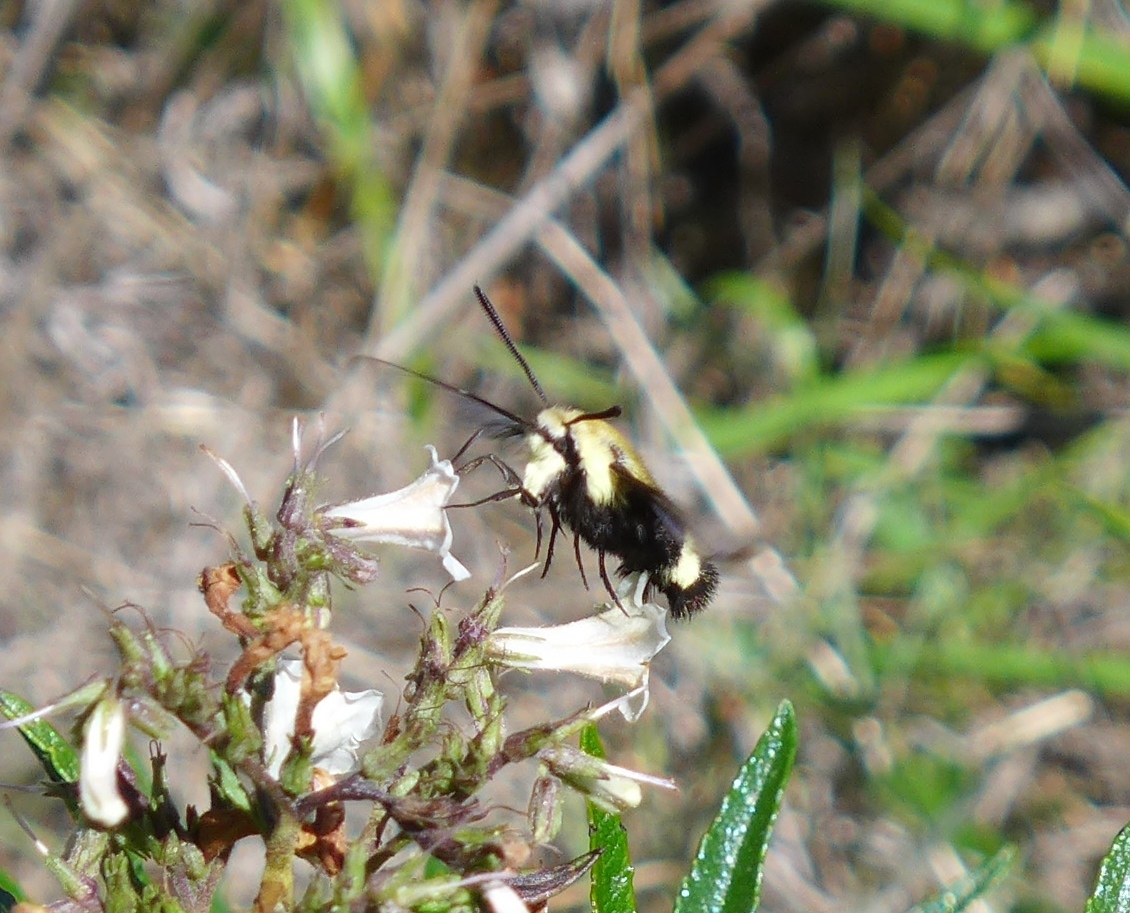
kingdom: Animalia
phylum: Arthropoda
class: Insecta
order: Lepidoptera
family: Sphingidae
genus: Hemaris
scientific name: Hemaris thetis
